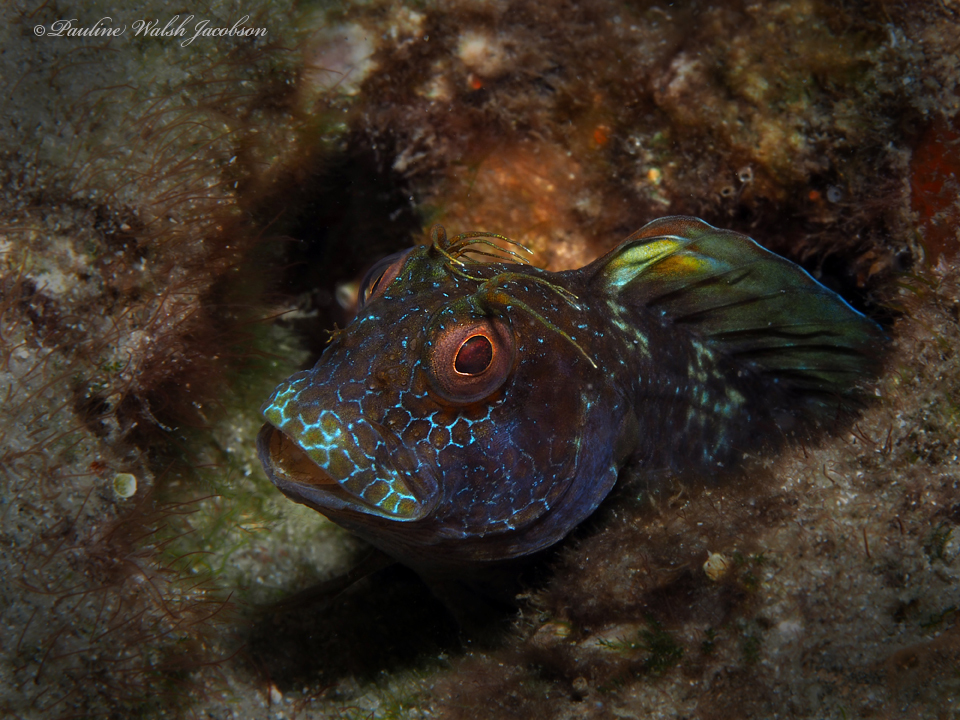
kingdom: Animalia
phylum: Chordata
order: Perciformes
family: Blenniidae
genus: Parablennius
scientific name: Parablennius marmoreus
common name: Seaweed blenny
